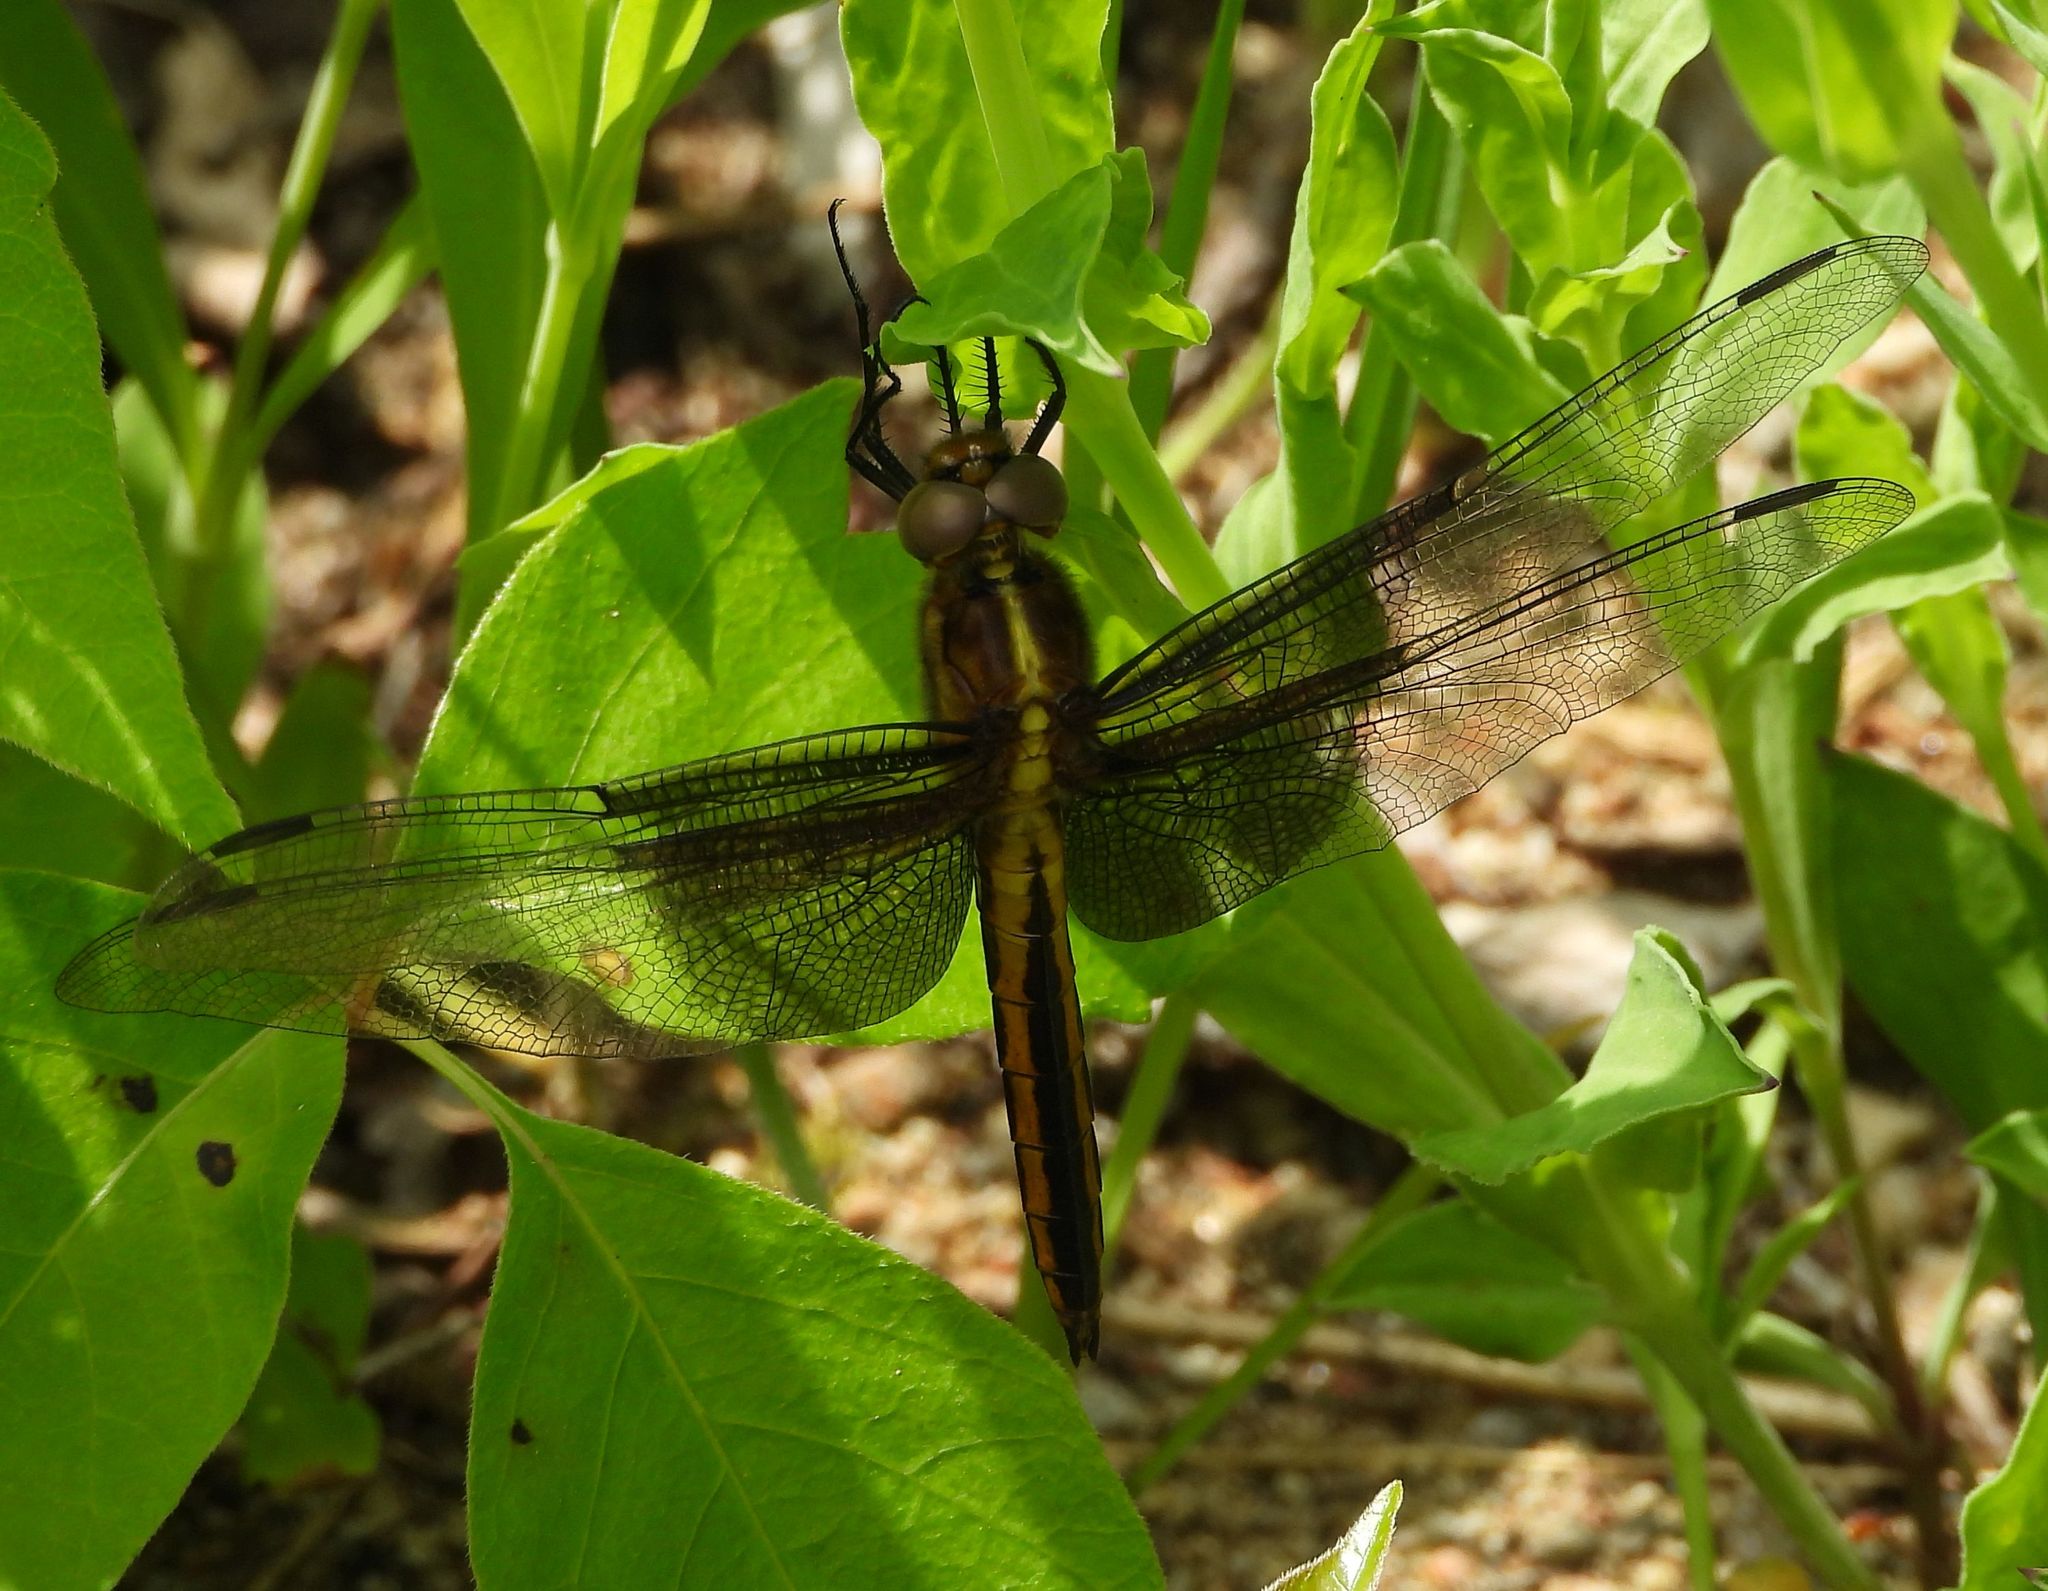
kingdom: Animalia
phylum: Arthropoda
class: Insecta
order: Odonata
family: Libellulidae
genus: Libellula
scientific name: Libellula luctuosa
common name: Widow skimmer
